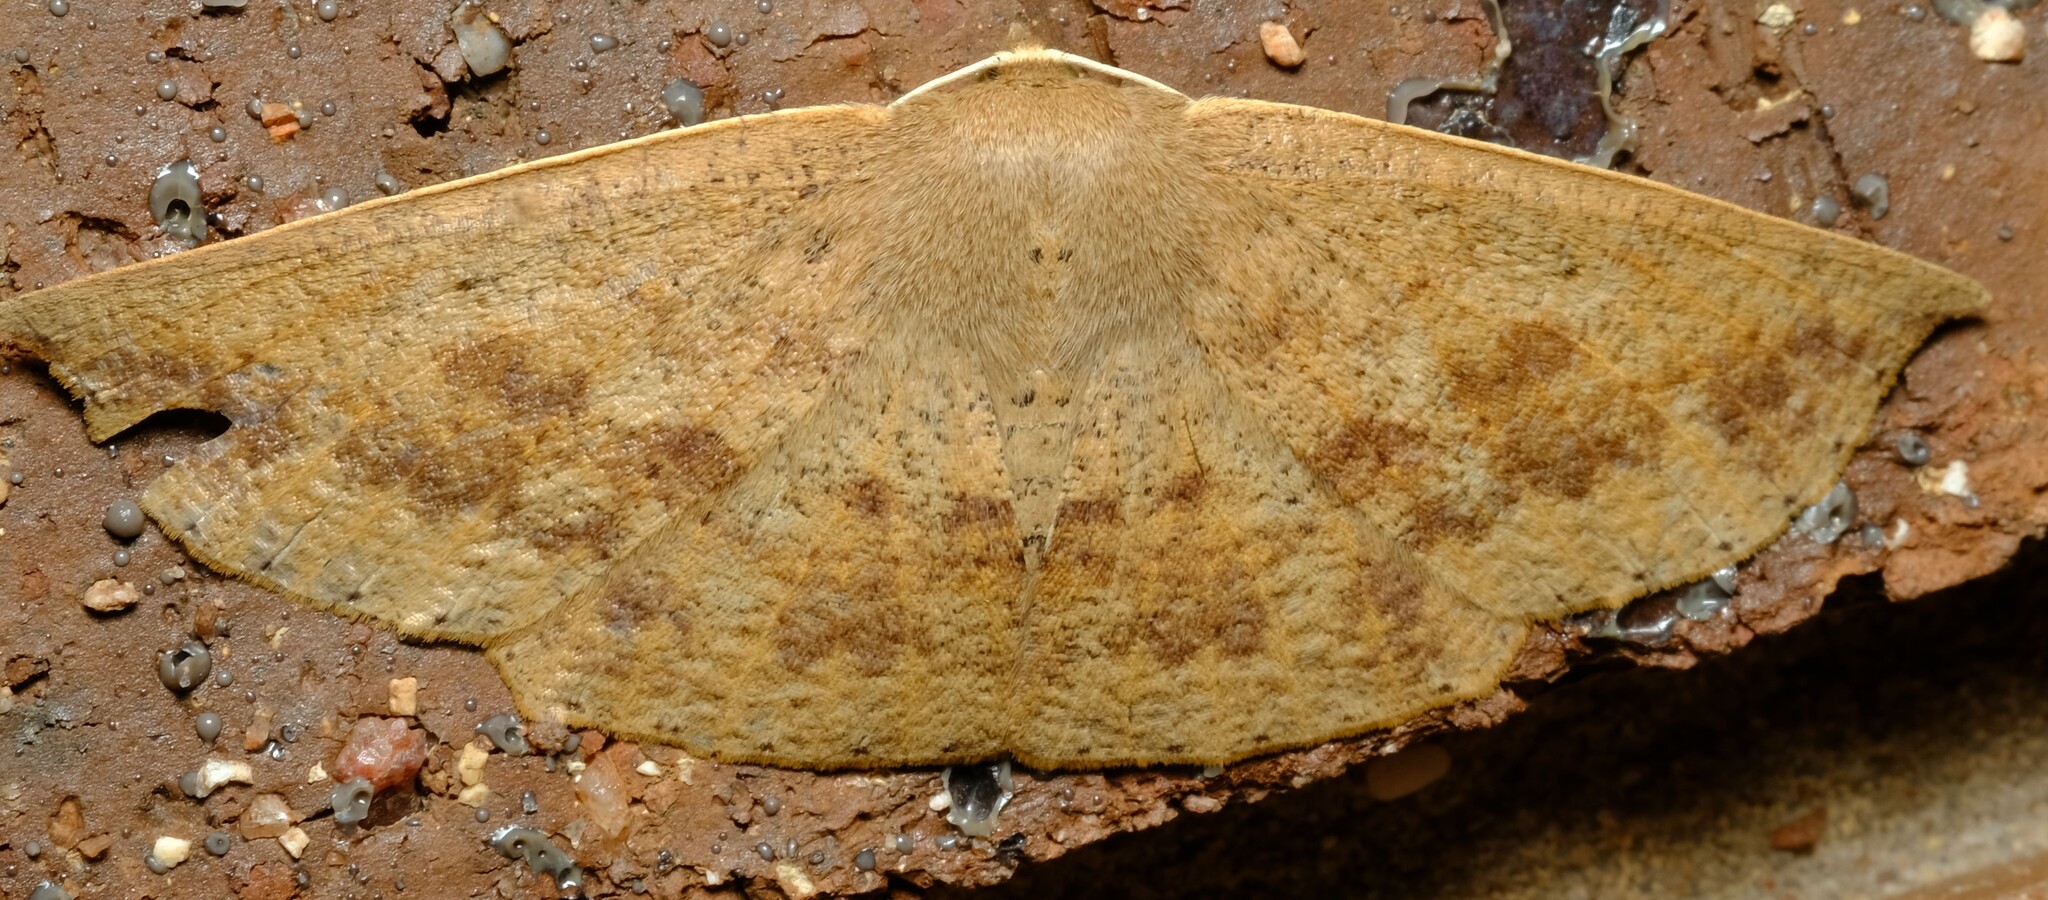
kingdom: Animalia
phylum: Arthropoda
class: Insecta
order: Lepidoptera
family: Geometridae
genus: Idiodes
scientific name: Idiodes siculoides
